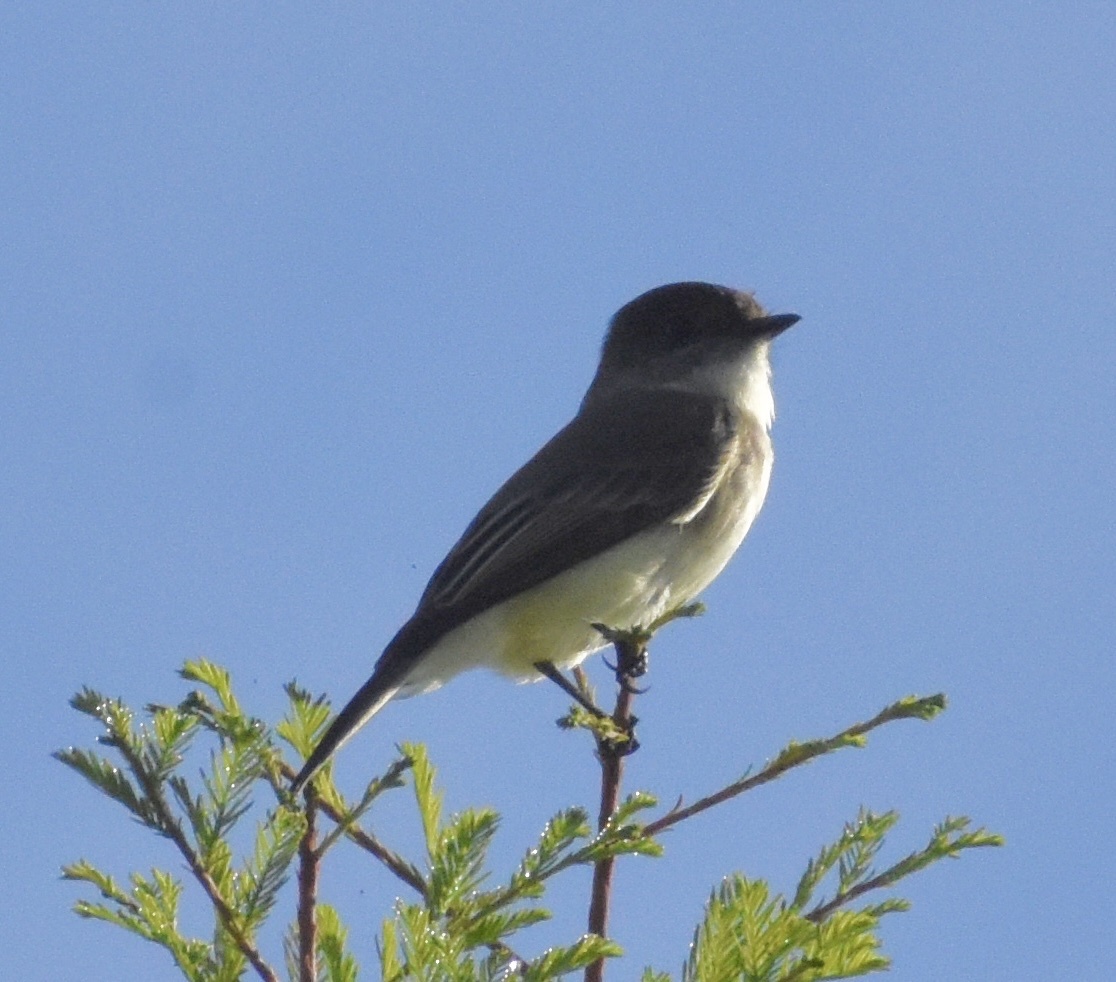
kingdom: Animalia
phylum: Chordata
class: Aves
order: Passeriformes
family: Tyrannidae
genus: Sayornis
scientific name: Sayornis phoebe
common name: Eastern phoebe
